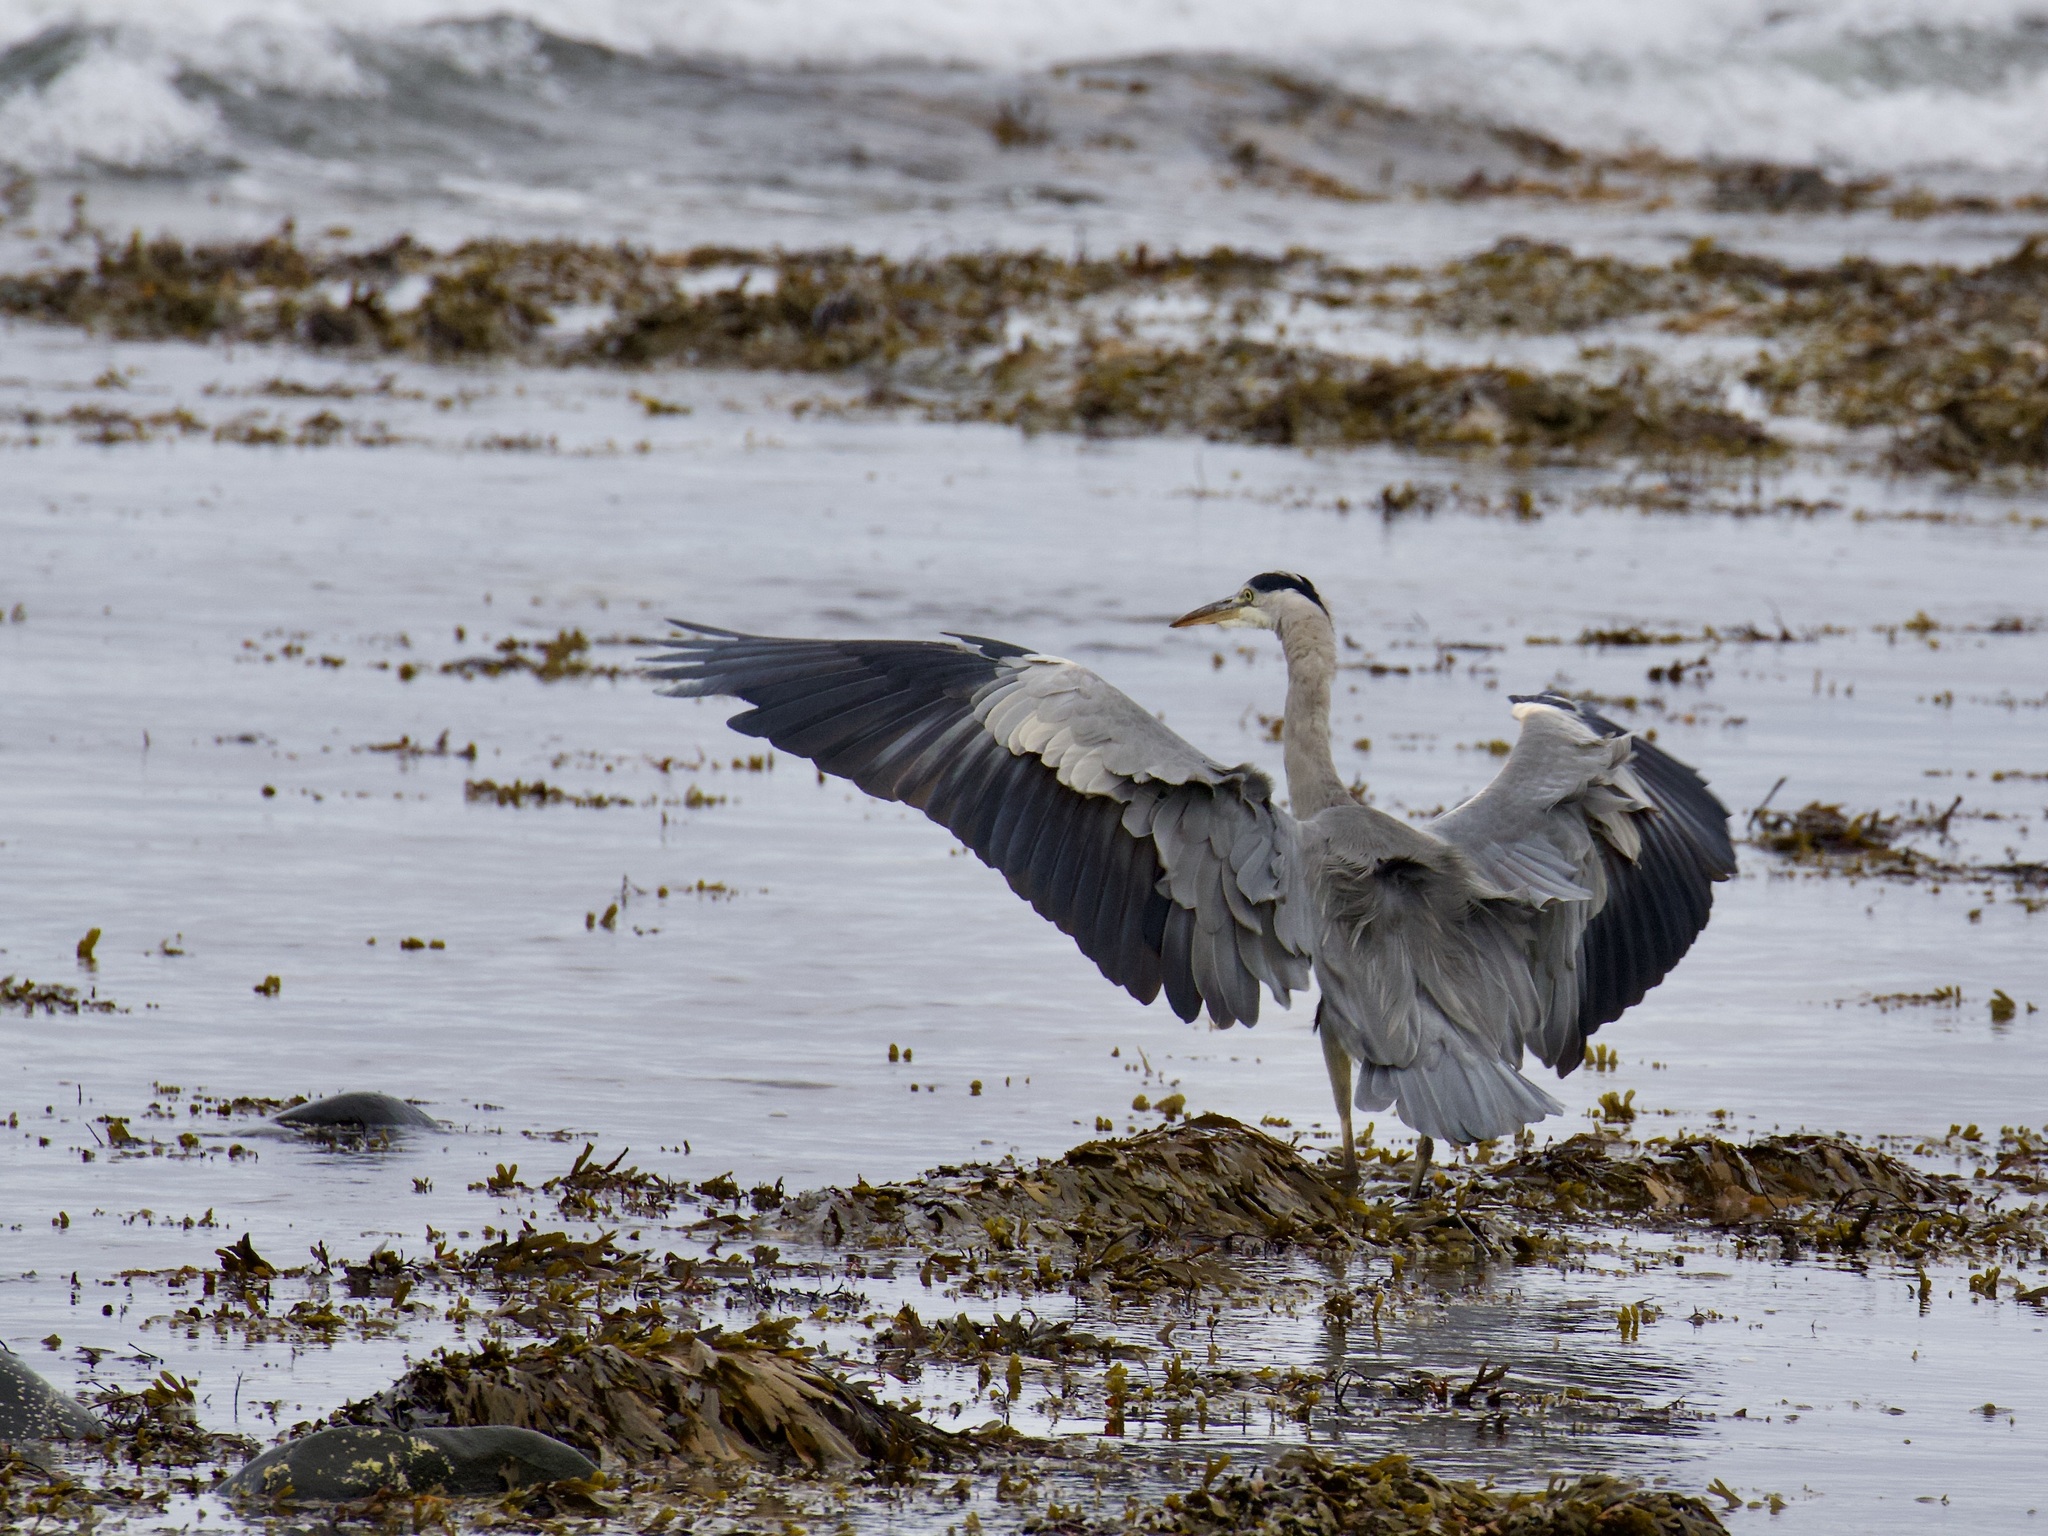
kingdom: Animalia
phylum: Chordata
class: Aves
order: Pelecaniformes
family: Ardeidae
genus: Ardea
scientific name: Ardea cinerea
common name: Grey heron
